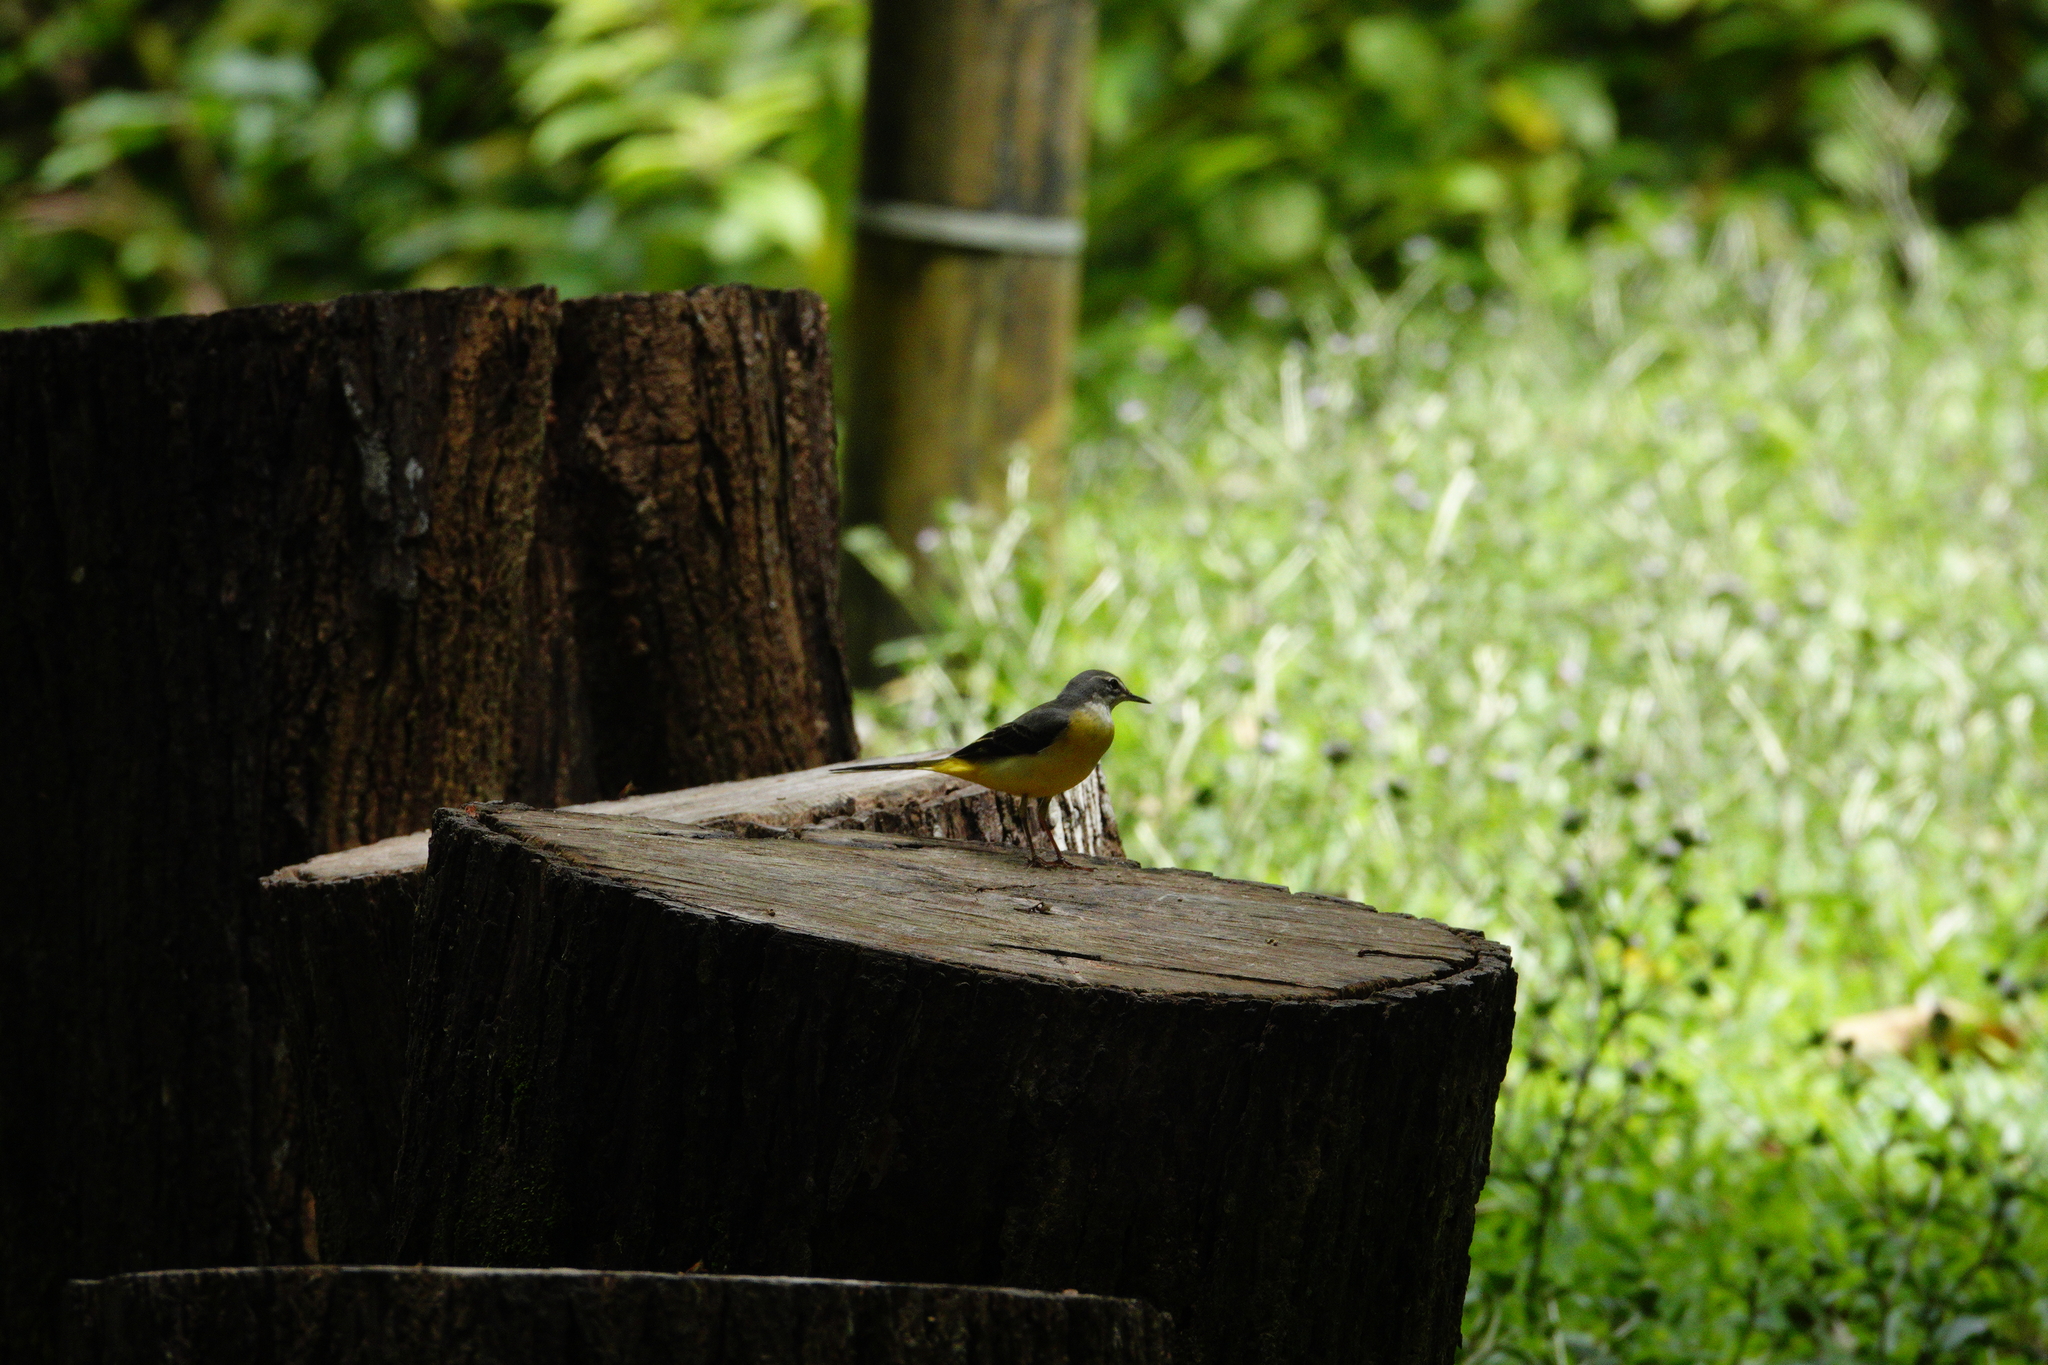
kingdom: Animalia
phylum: Chordata
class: Aves
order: Passeriformes
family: Motacillidae
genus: Motacilla
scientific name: Motacilla cinerea
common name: Grey wagtail
